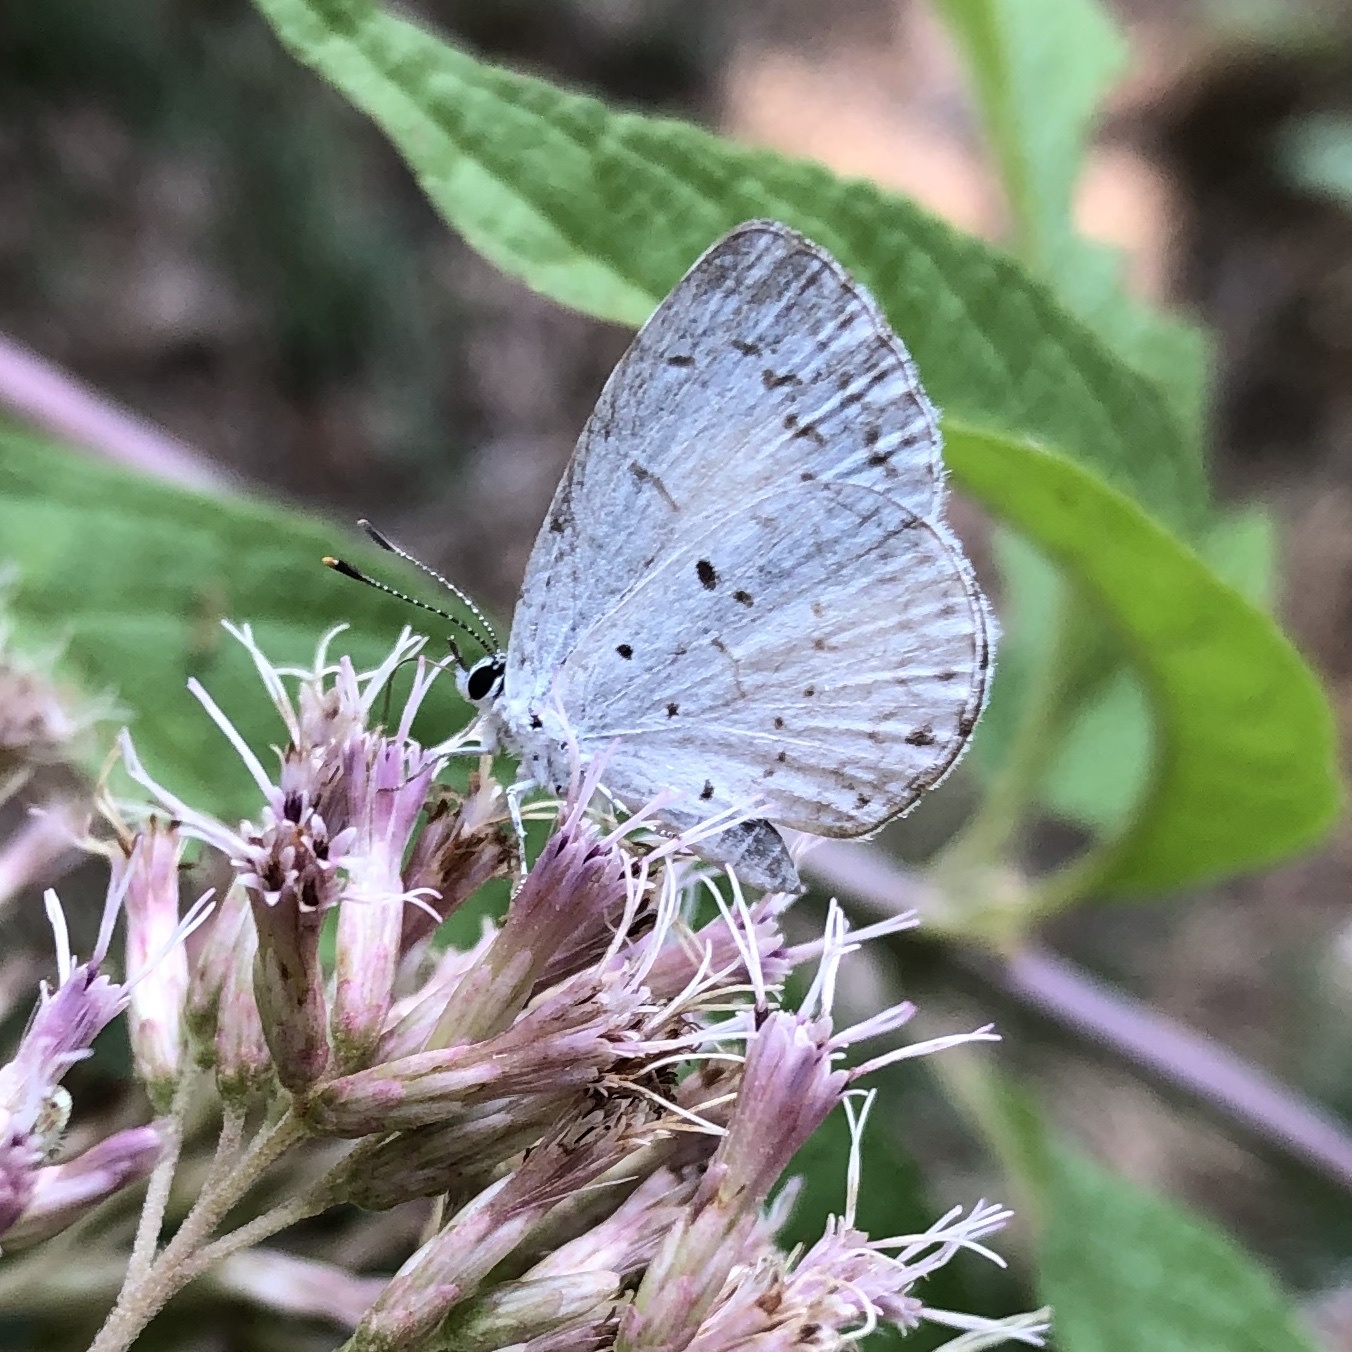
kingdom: Animalia
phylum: Arthropoda
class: Insecta
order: Lepidoptera
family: Lycaenidae
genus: Cyaniris
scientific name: Cyaniris neglecta
